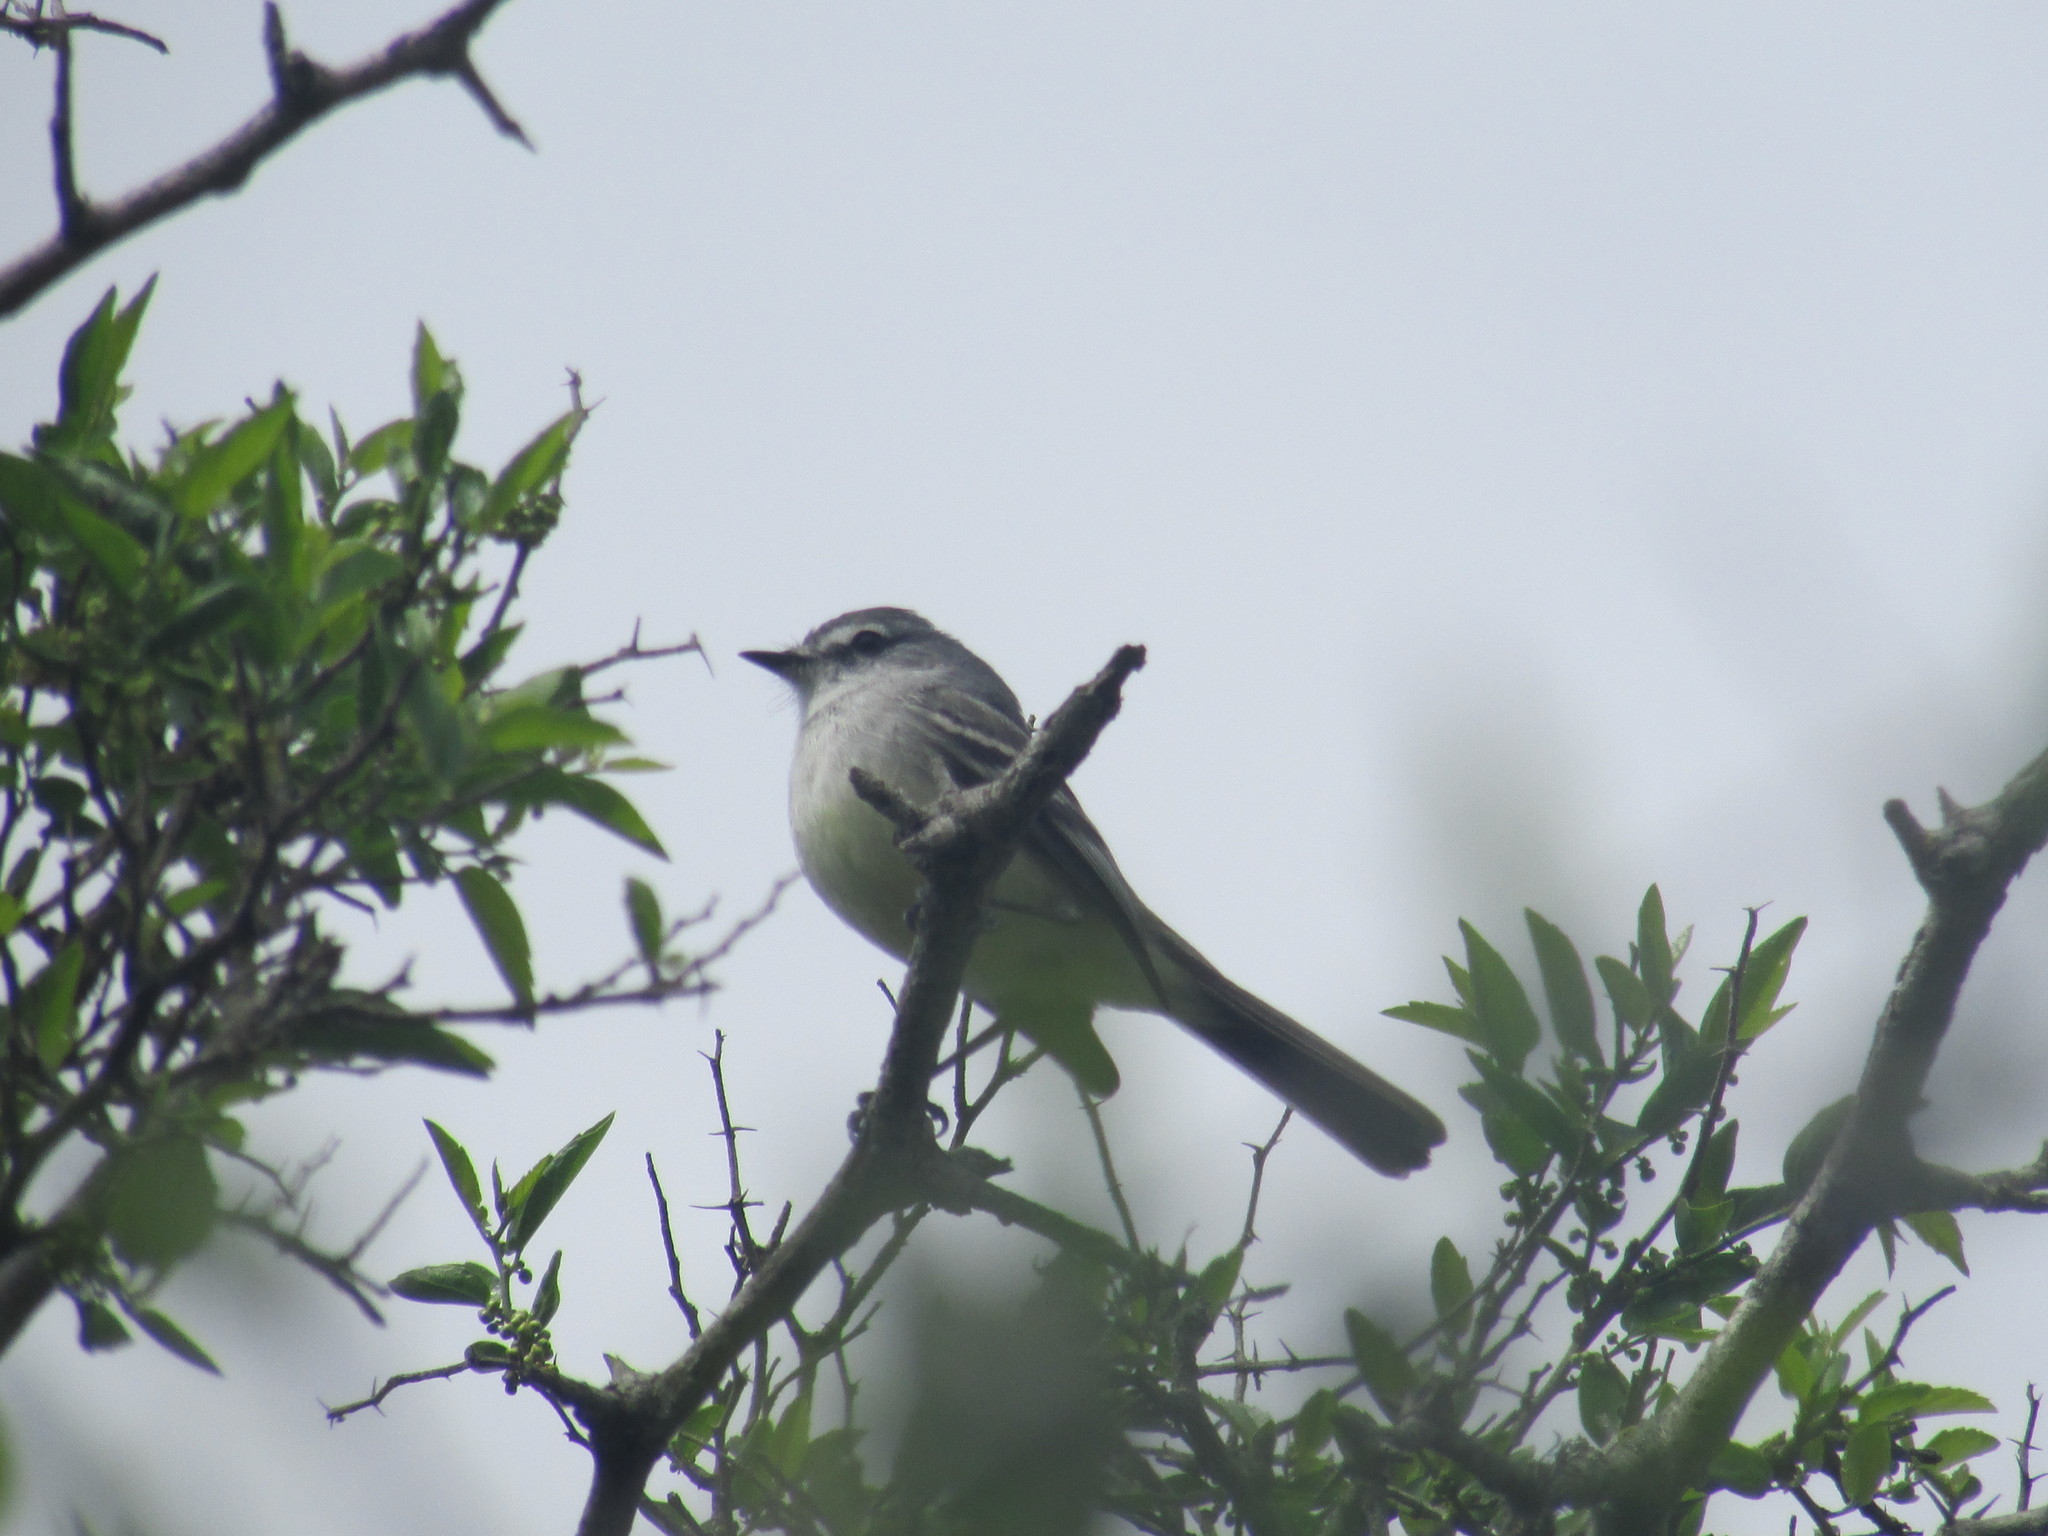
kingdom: Animalia
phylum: Chordata
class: Aves
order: Passeriformes
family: Tyrannidae
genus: Suiriri
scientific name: Suiriri suiriri
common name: Suiriri flycatcher
